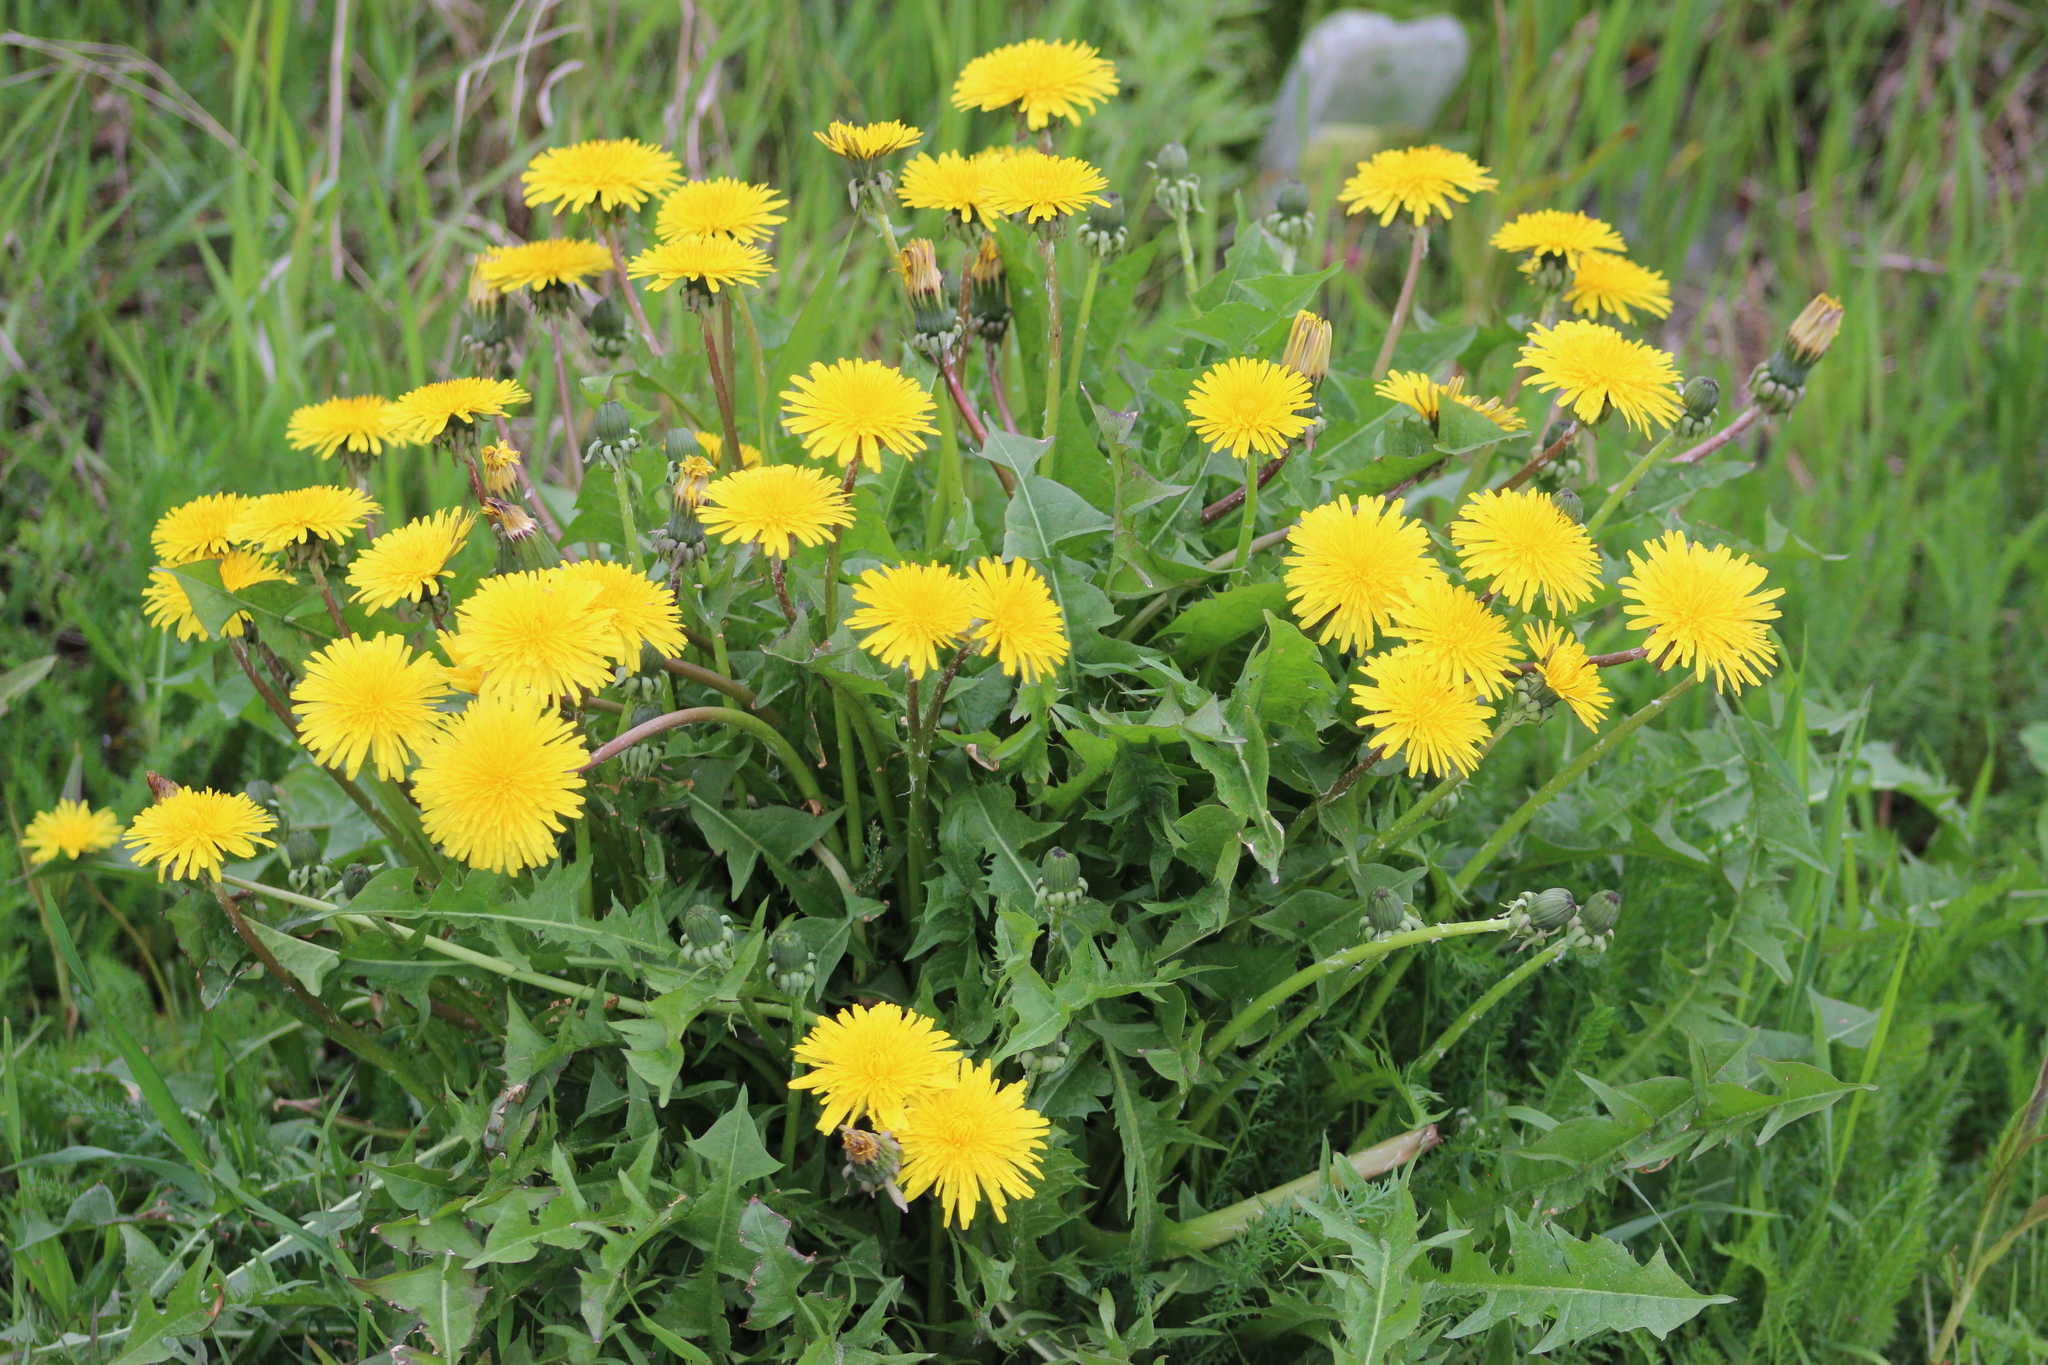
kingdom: Plantae
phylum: Tracheophyta
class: Magnoliopsida
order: Asterales
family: Asteraceae
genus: Taraxacum
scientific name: Taraxacum officinale
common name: Common dandelion
